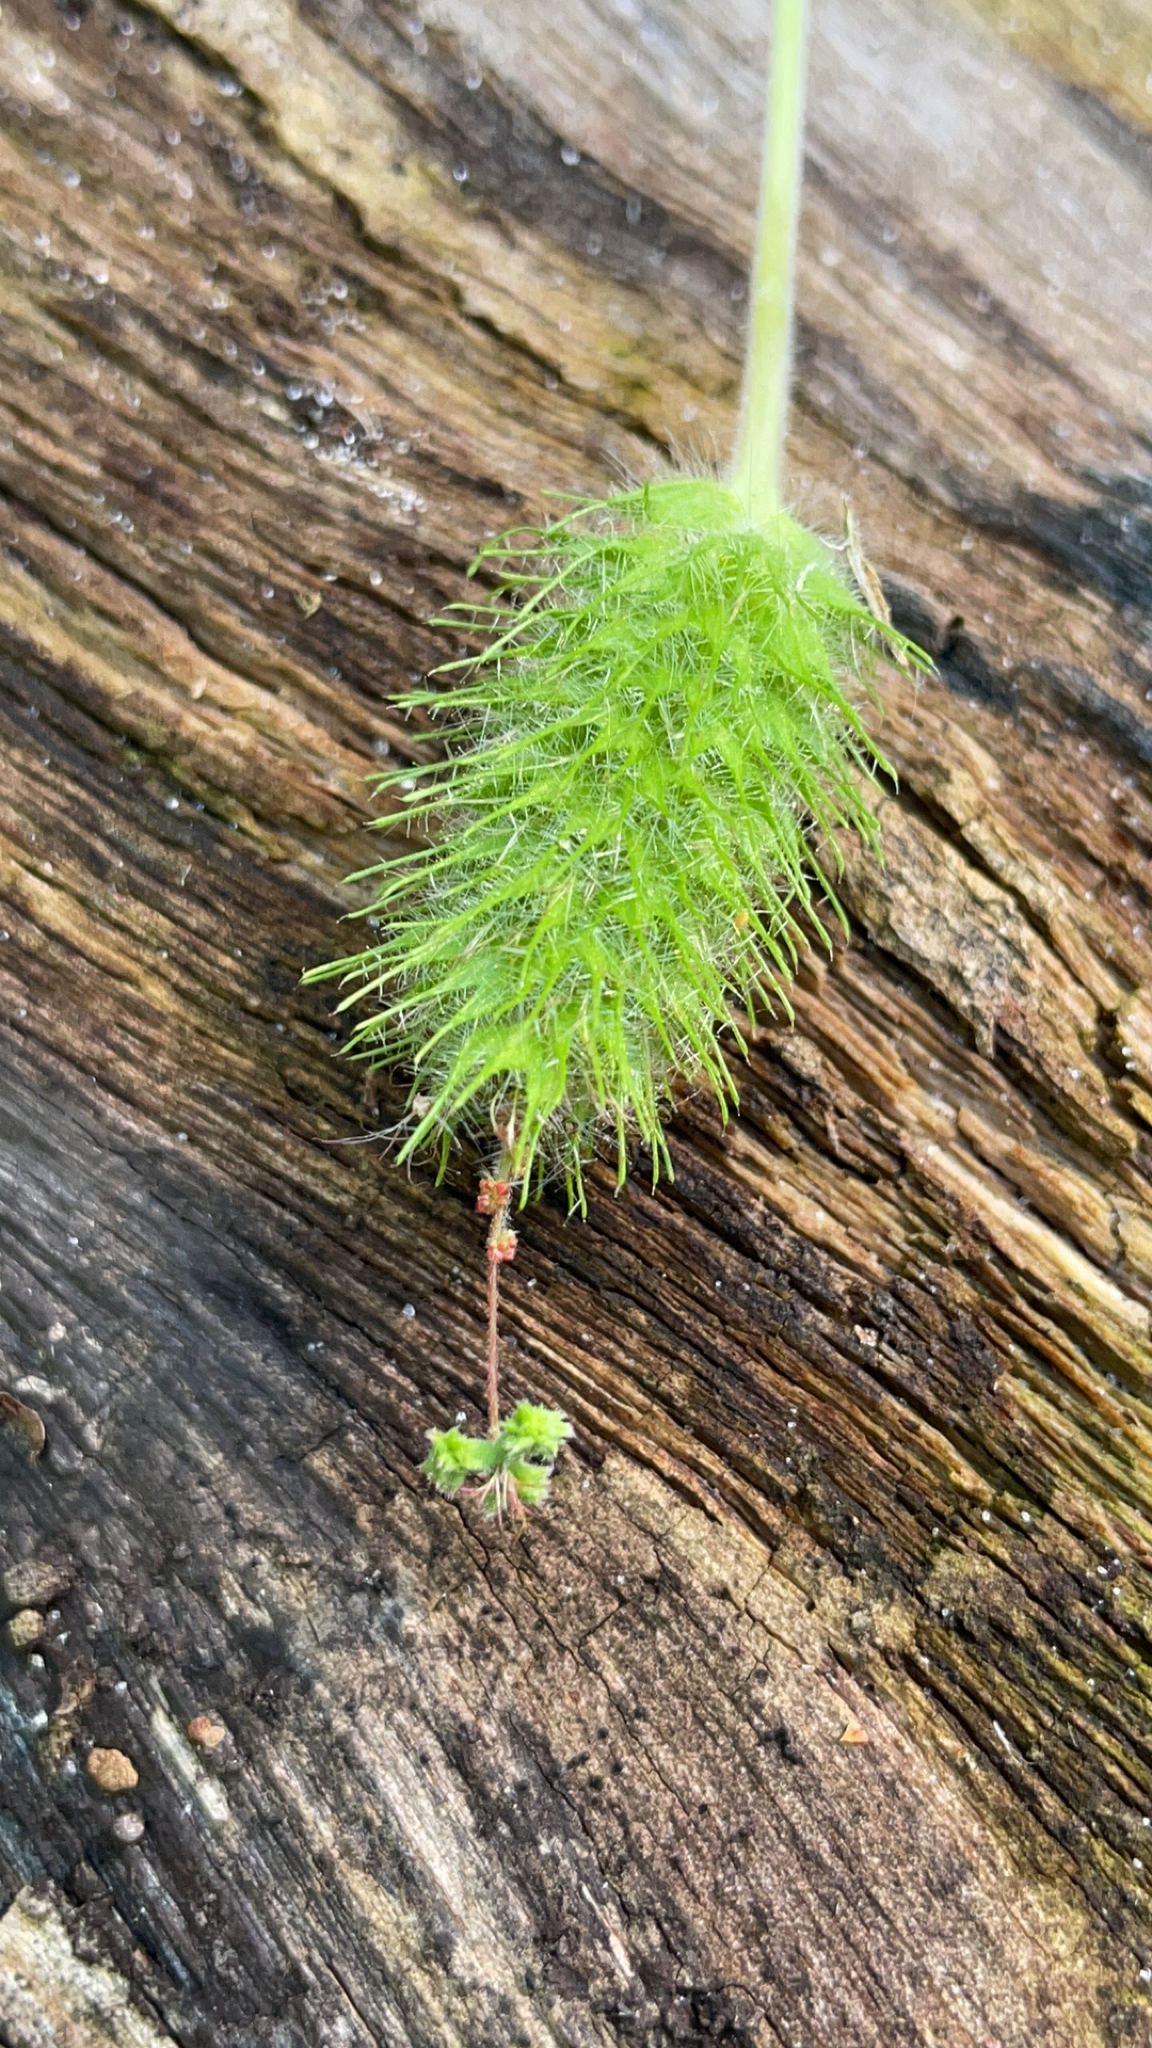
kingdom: Plantae
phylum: Tracheophyta
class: Magnoliopsida
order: Malpighiales
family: Euphorbiaceae
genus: Acalypha
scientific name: Acalypha arvensis
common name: Field copperleaf
